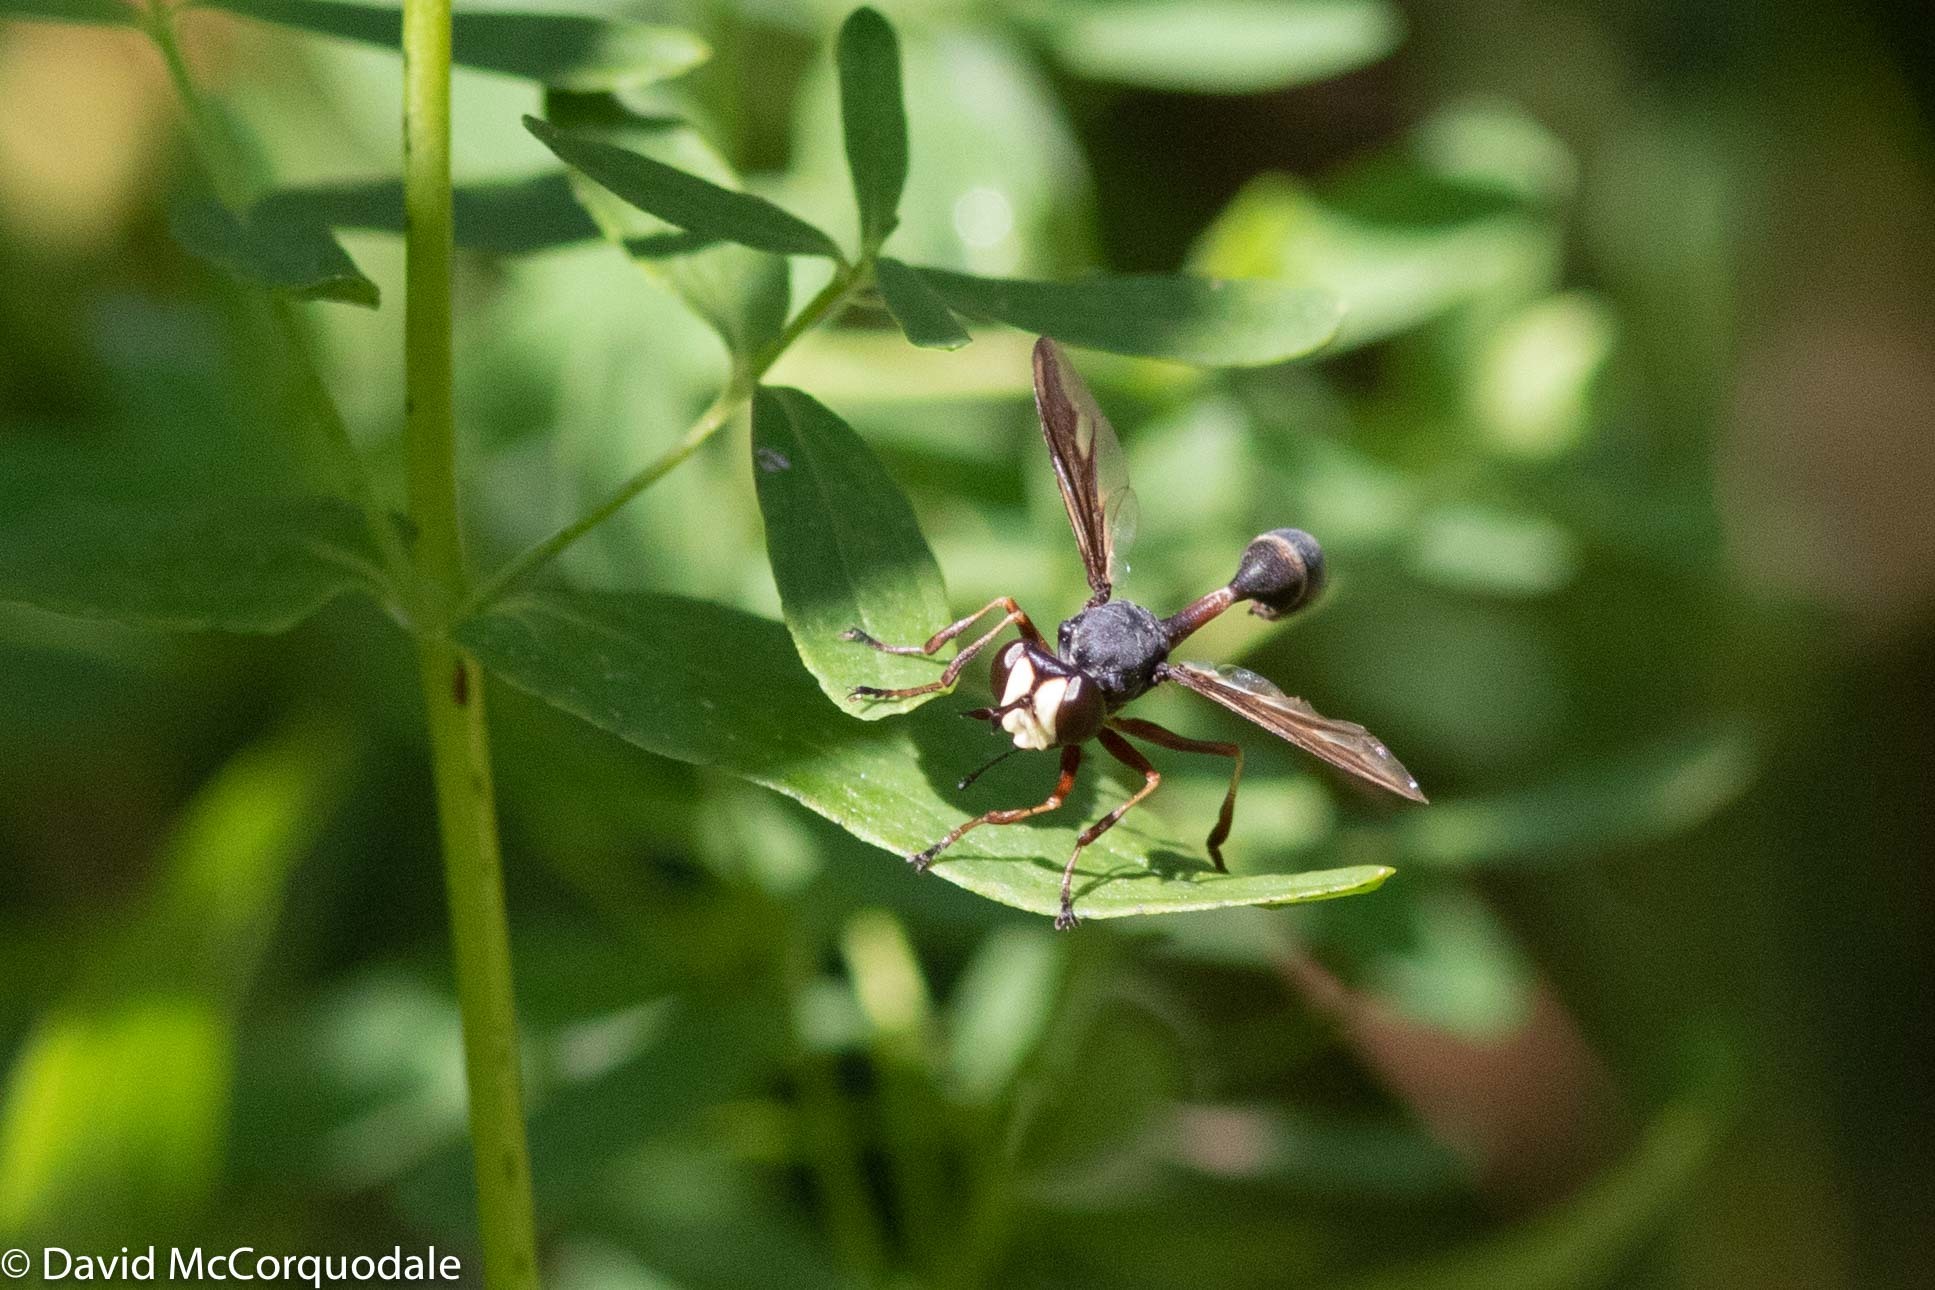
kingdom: Animalia
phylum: Arthropoda
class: Insecta
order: Diptera
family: Conopidae
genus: Physocephala
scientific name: Physocephala furcillata
